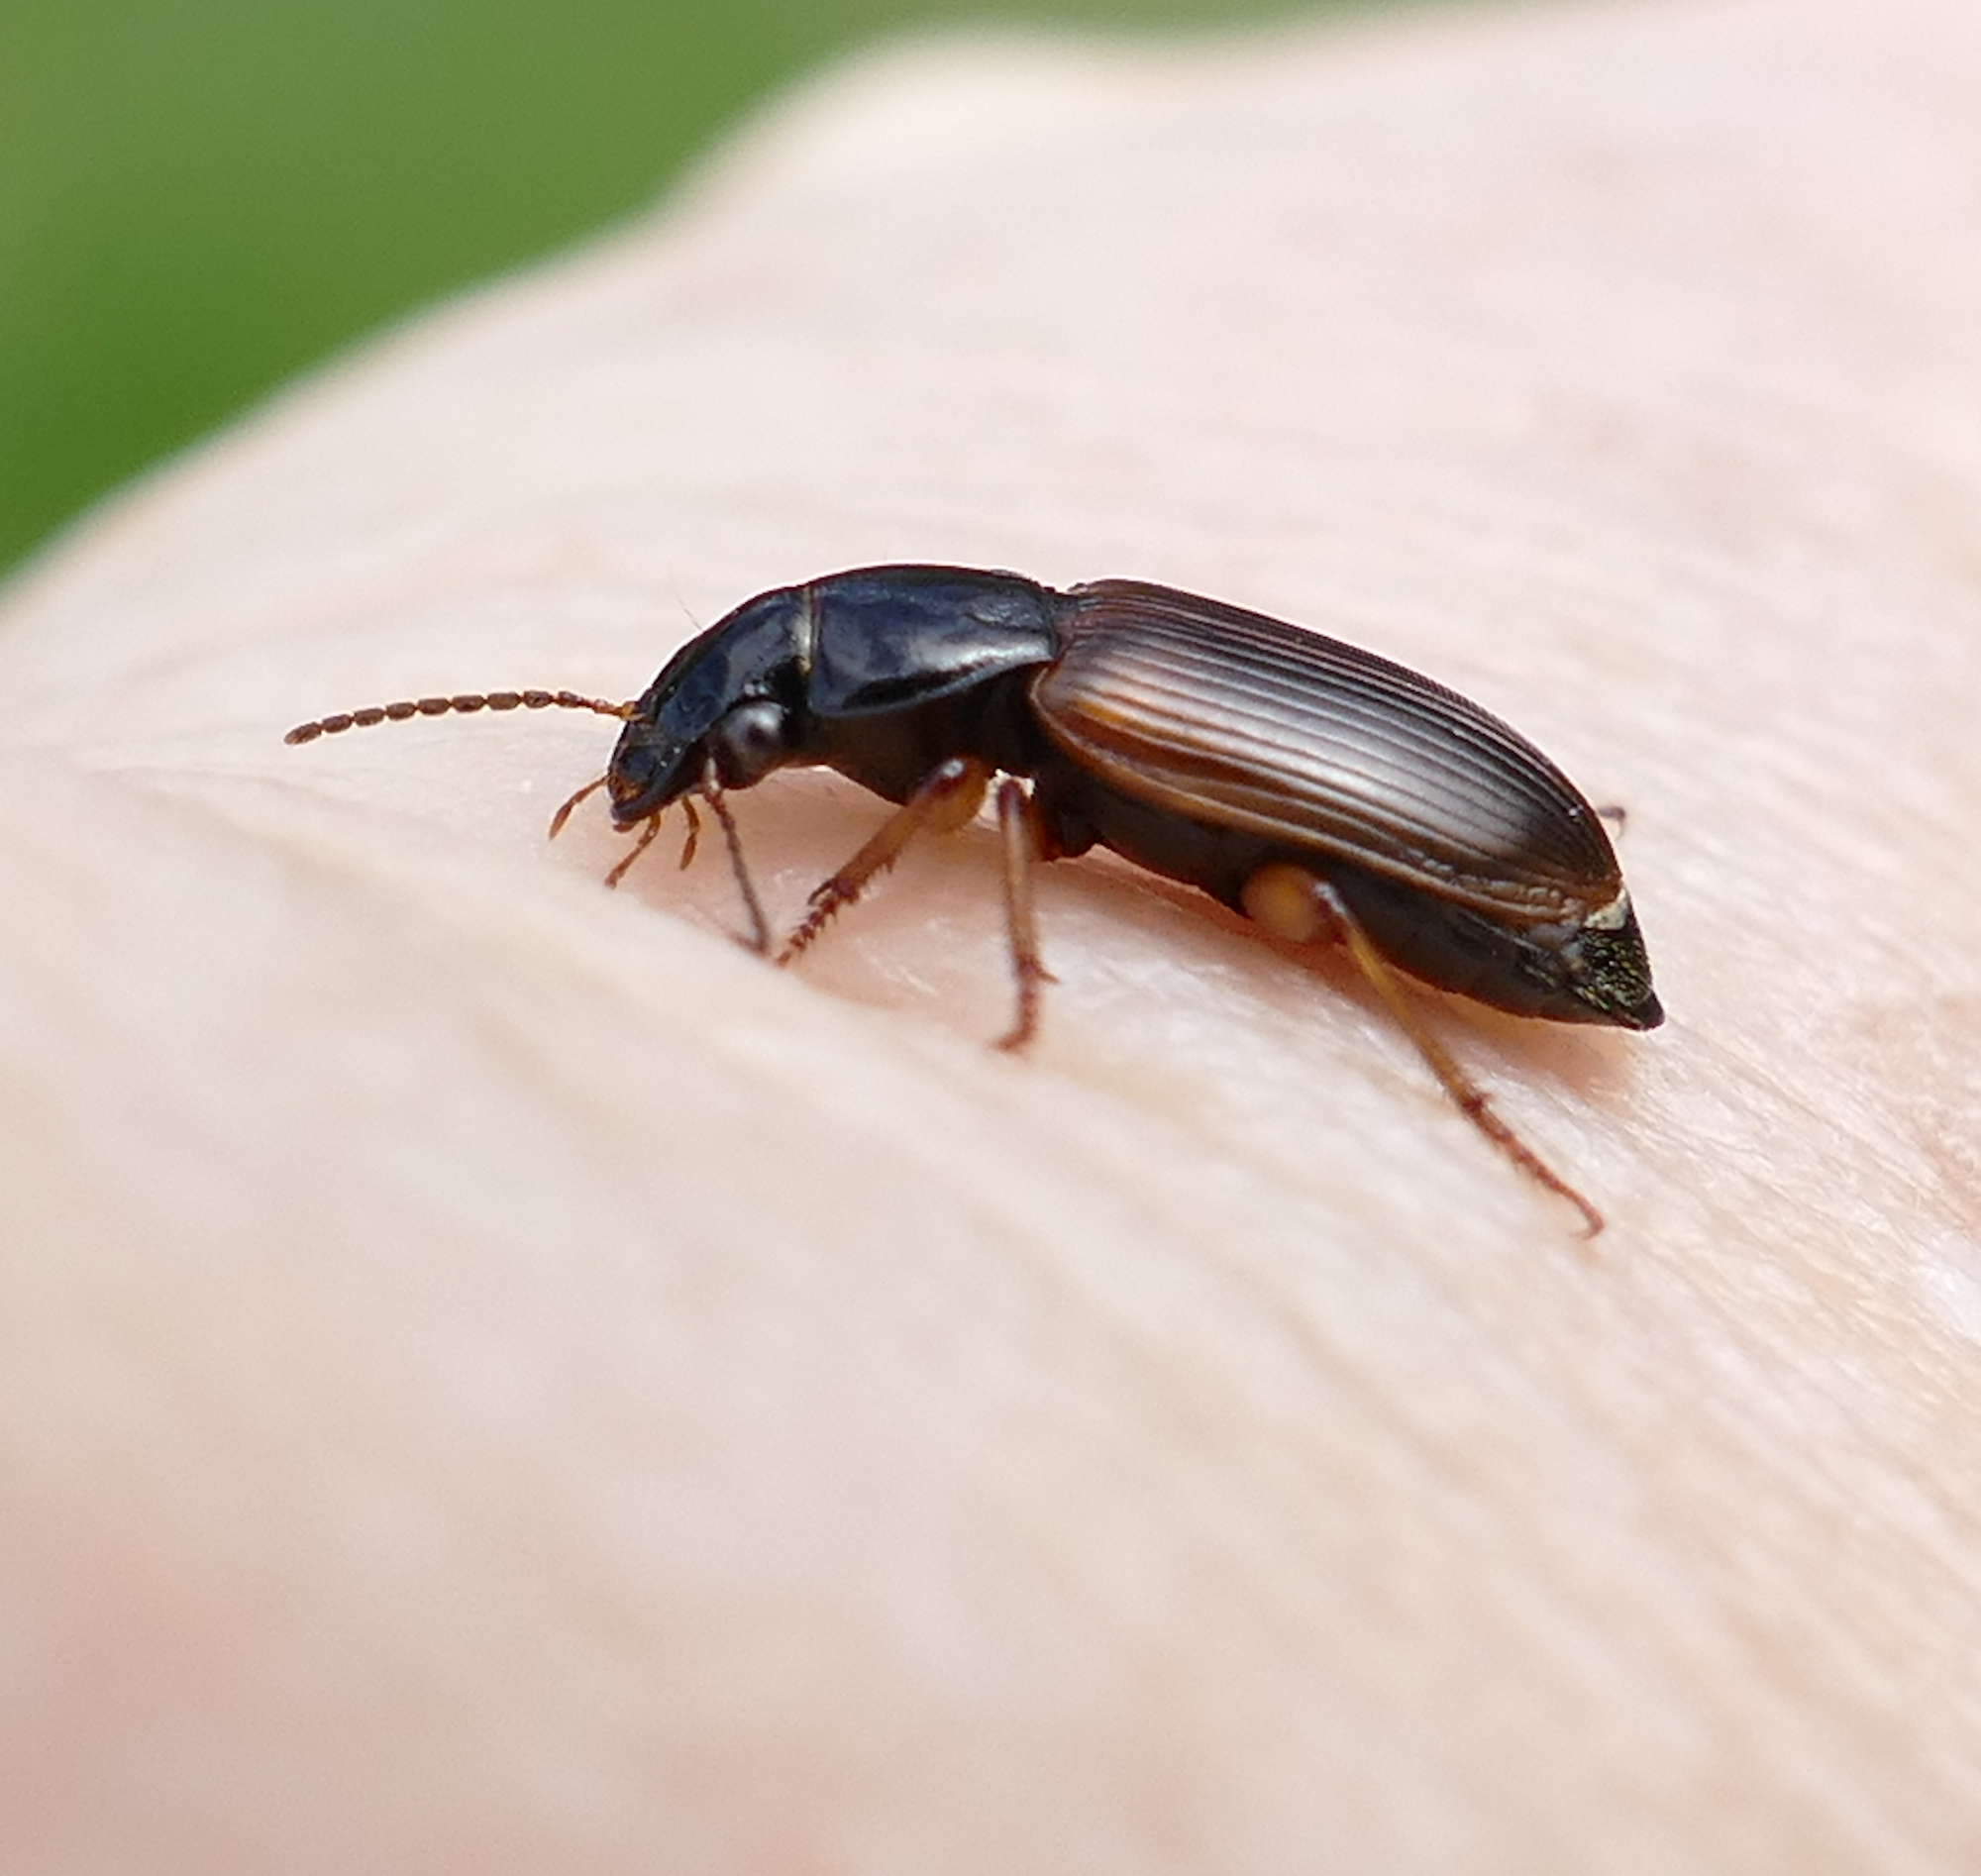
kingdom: Animalia
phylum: Arthropoda
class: Insecta
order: Coleoptera
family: Carabidae
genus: Anisodactylus
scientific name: Anisodactylus sanctaecrucis
